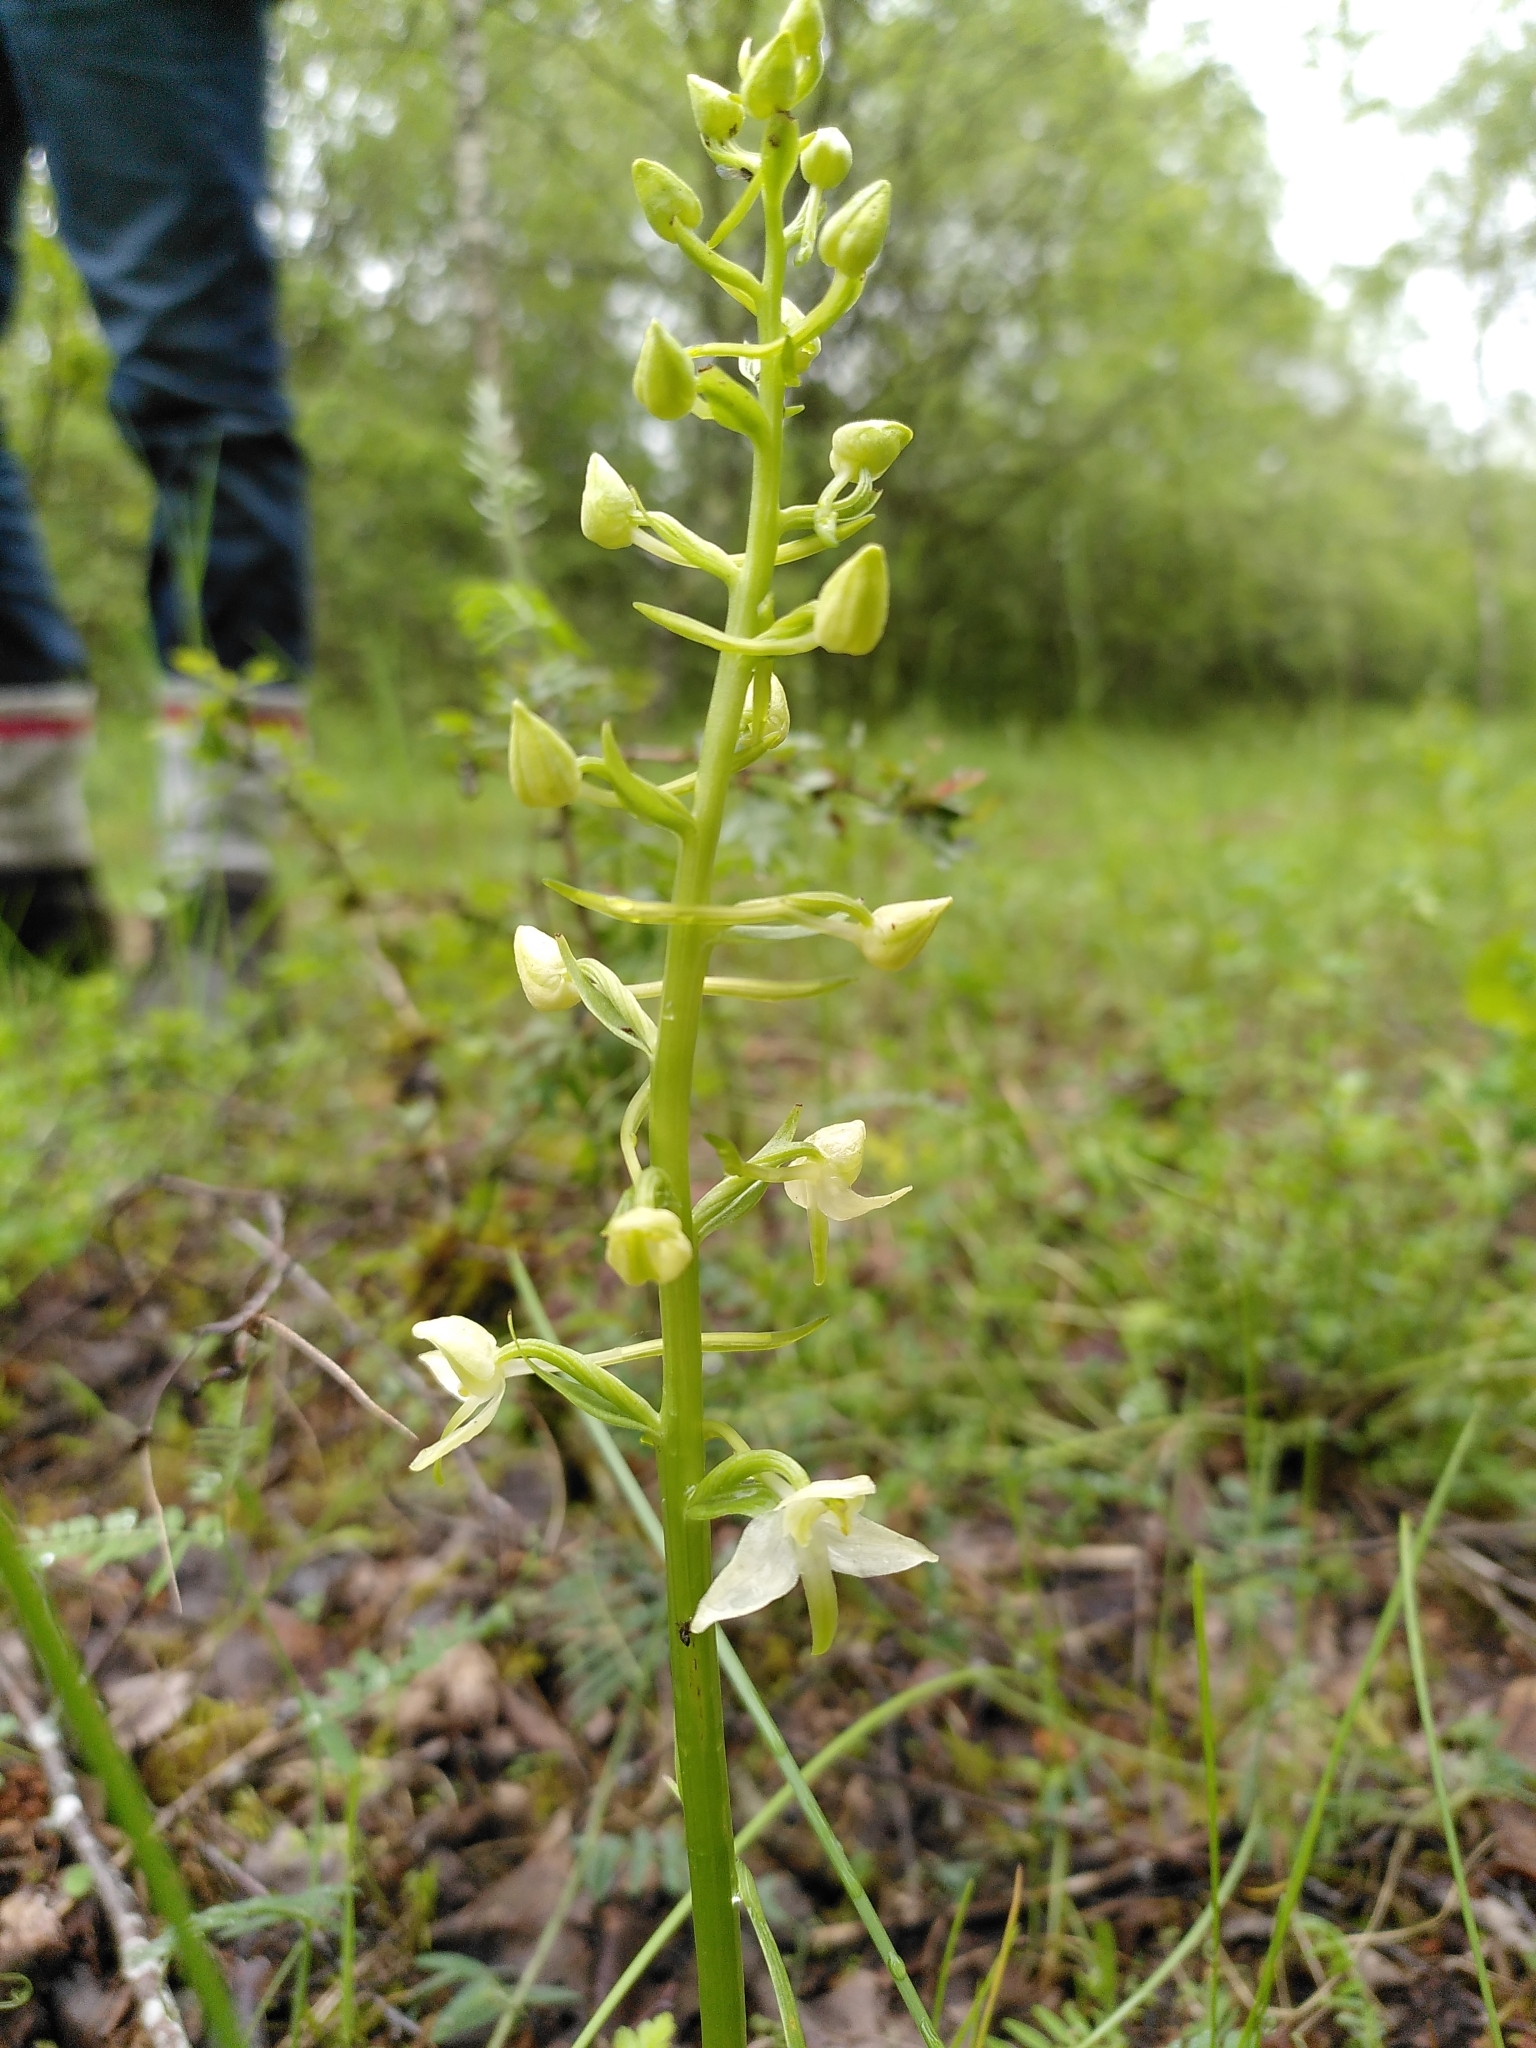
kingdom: Plantae
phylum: Tracheophyta
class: Liliopsida
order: Asparagales
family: Orchidaceae
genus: Platanthera
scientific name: Platanthera chlorantha
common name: Greater butterfly-orchid
